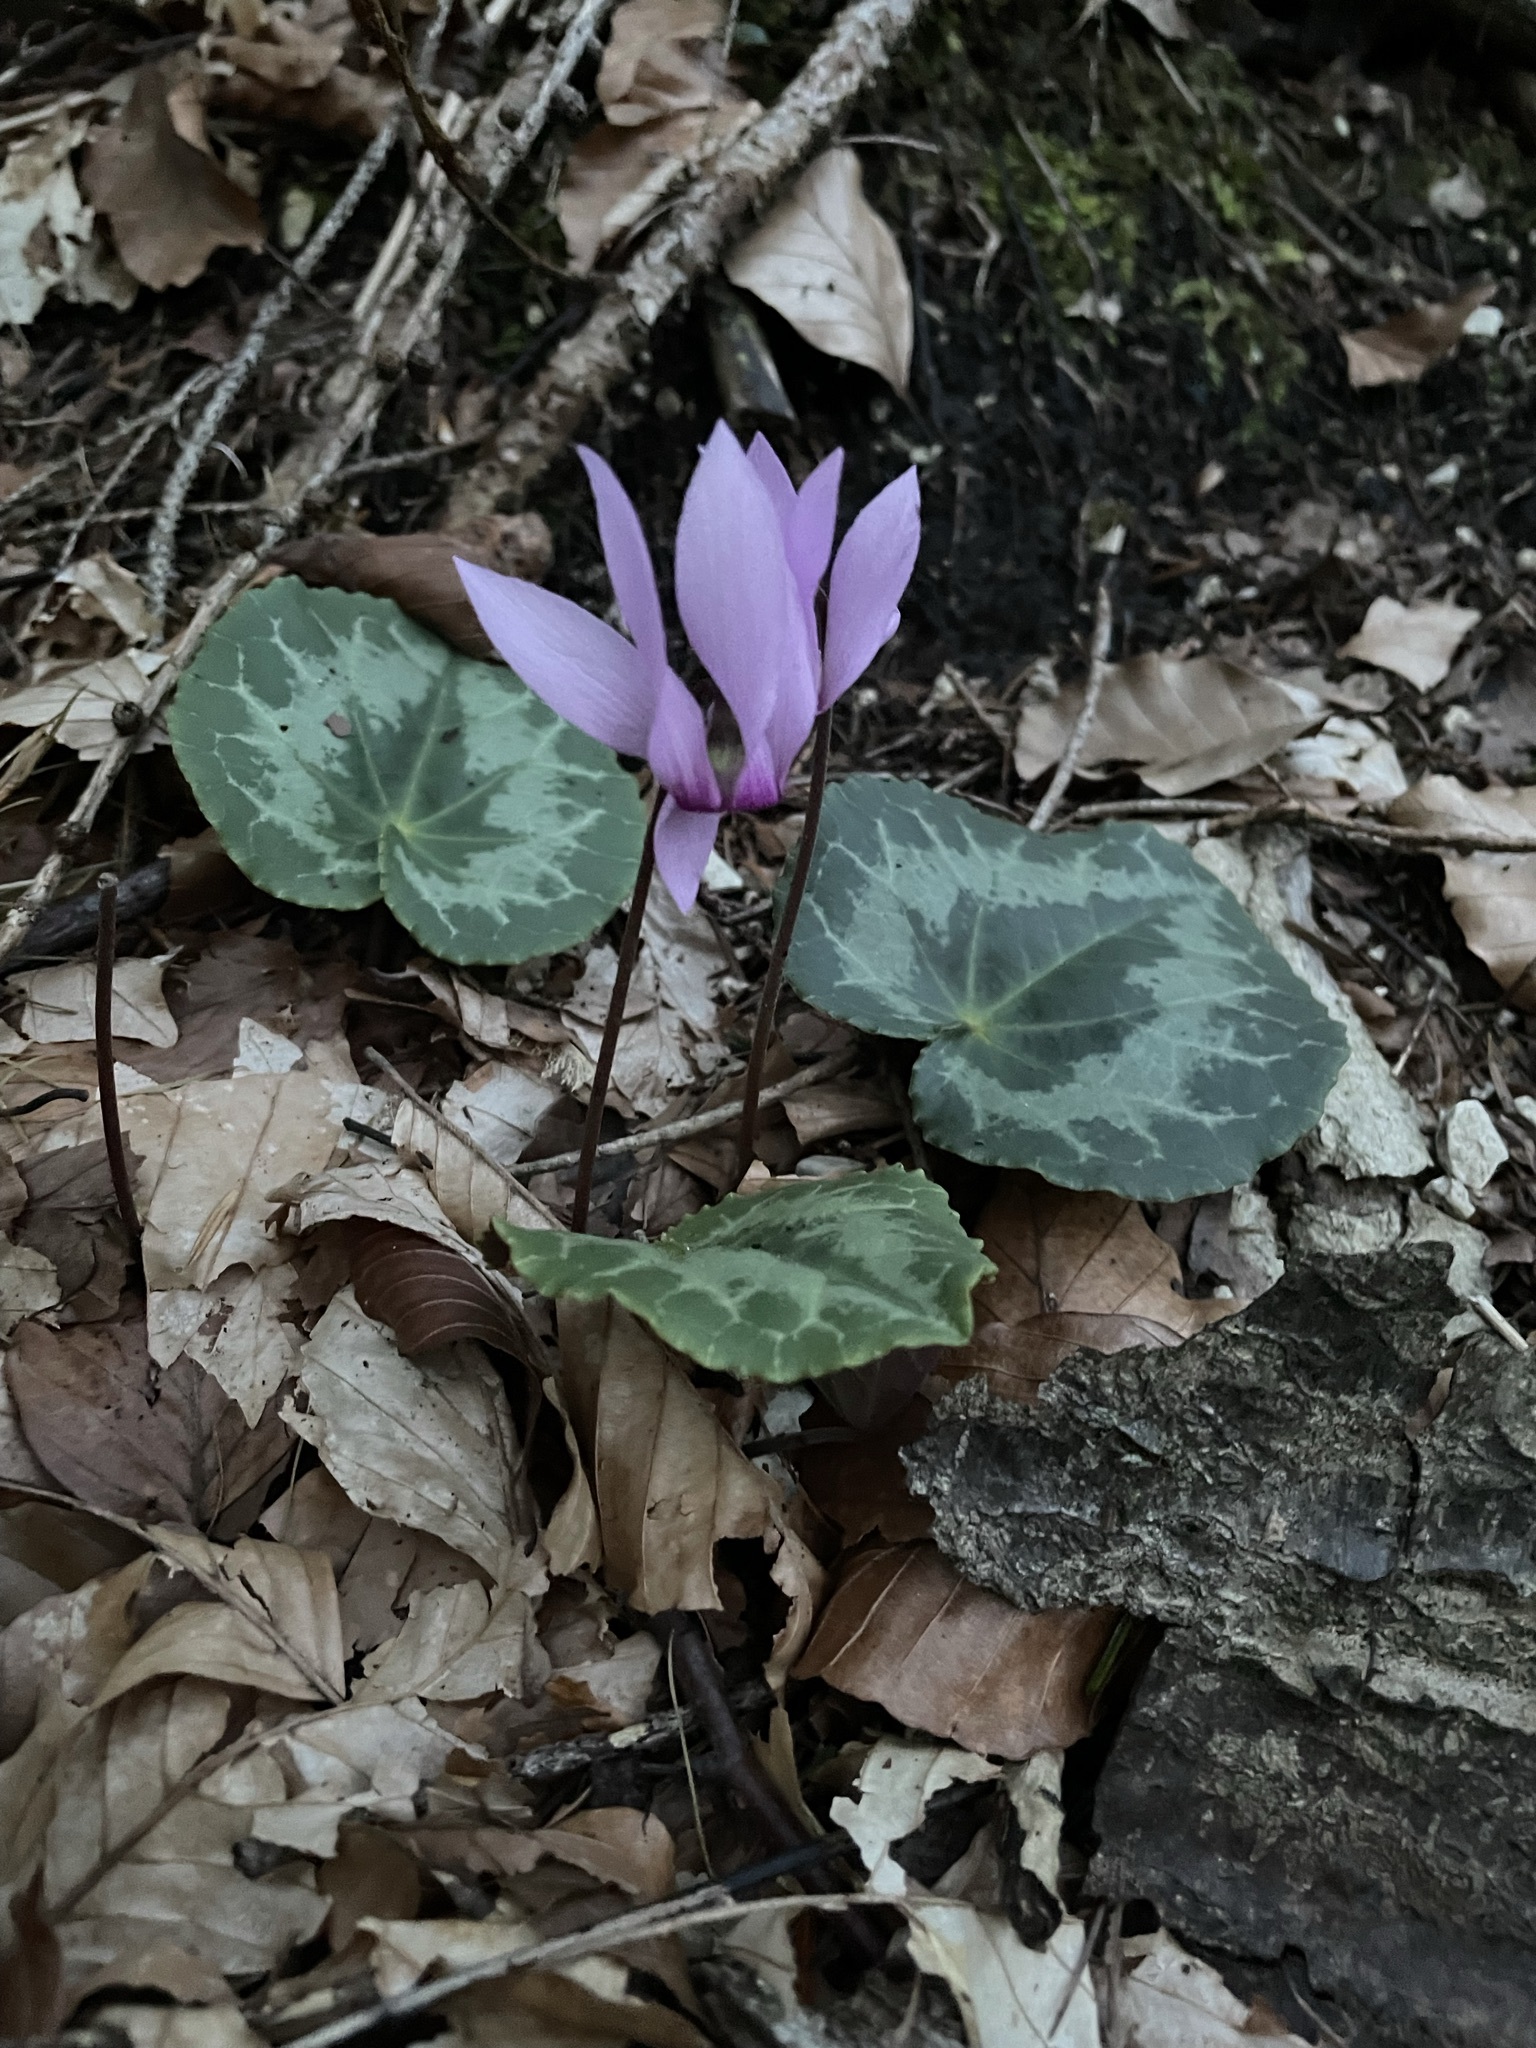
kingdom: Plantae
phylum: Tracheophyta
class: Magnoliopsida
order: Ericales
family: Primulaceae
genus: Cyclamen
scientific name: Cyclamen purpurascens
